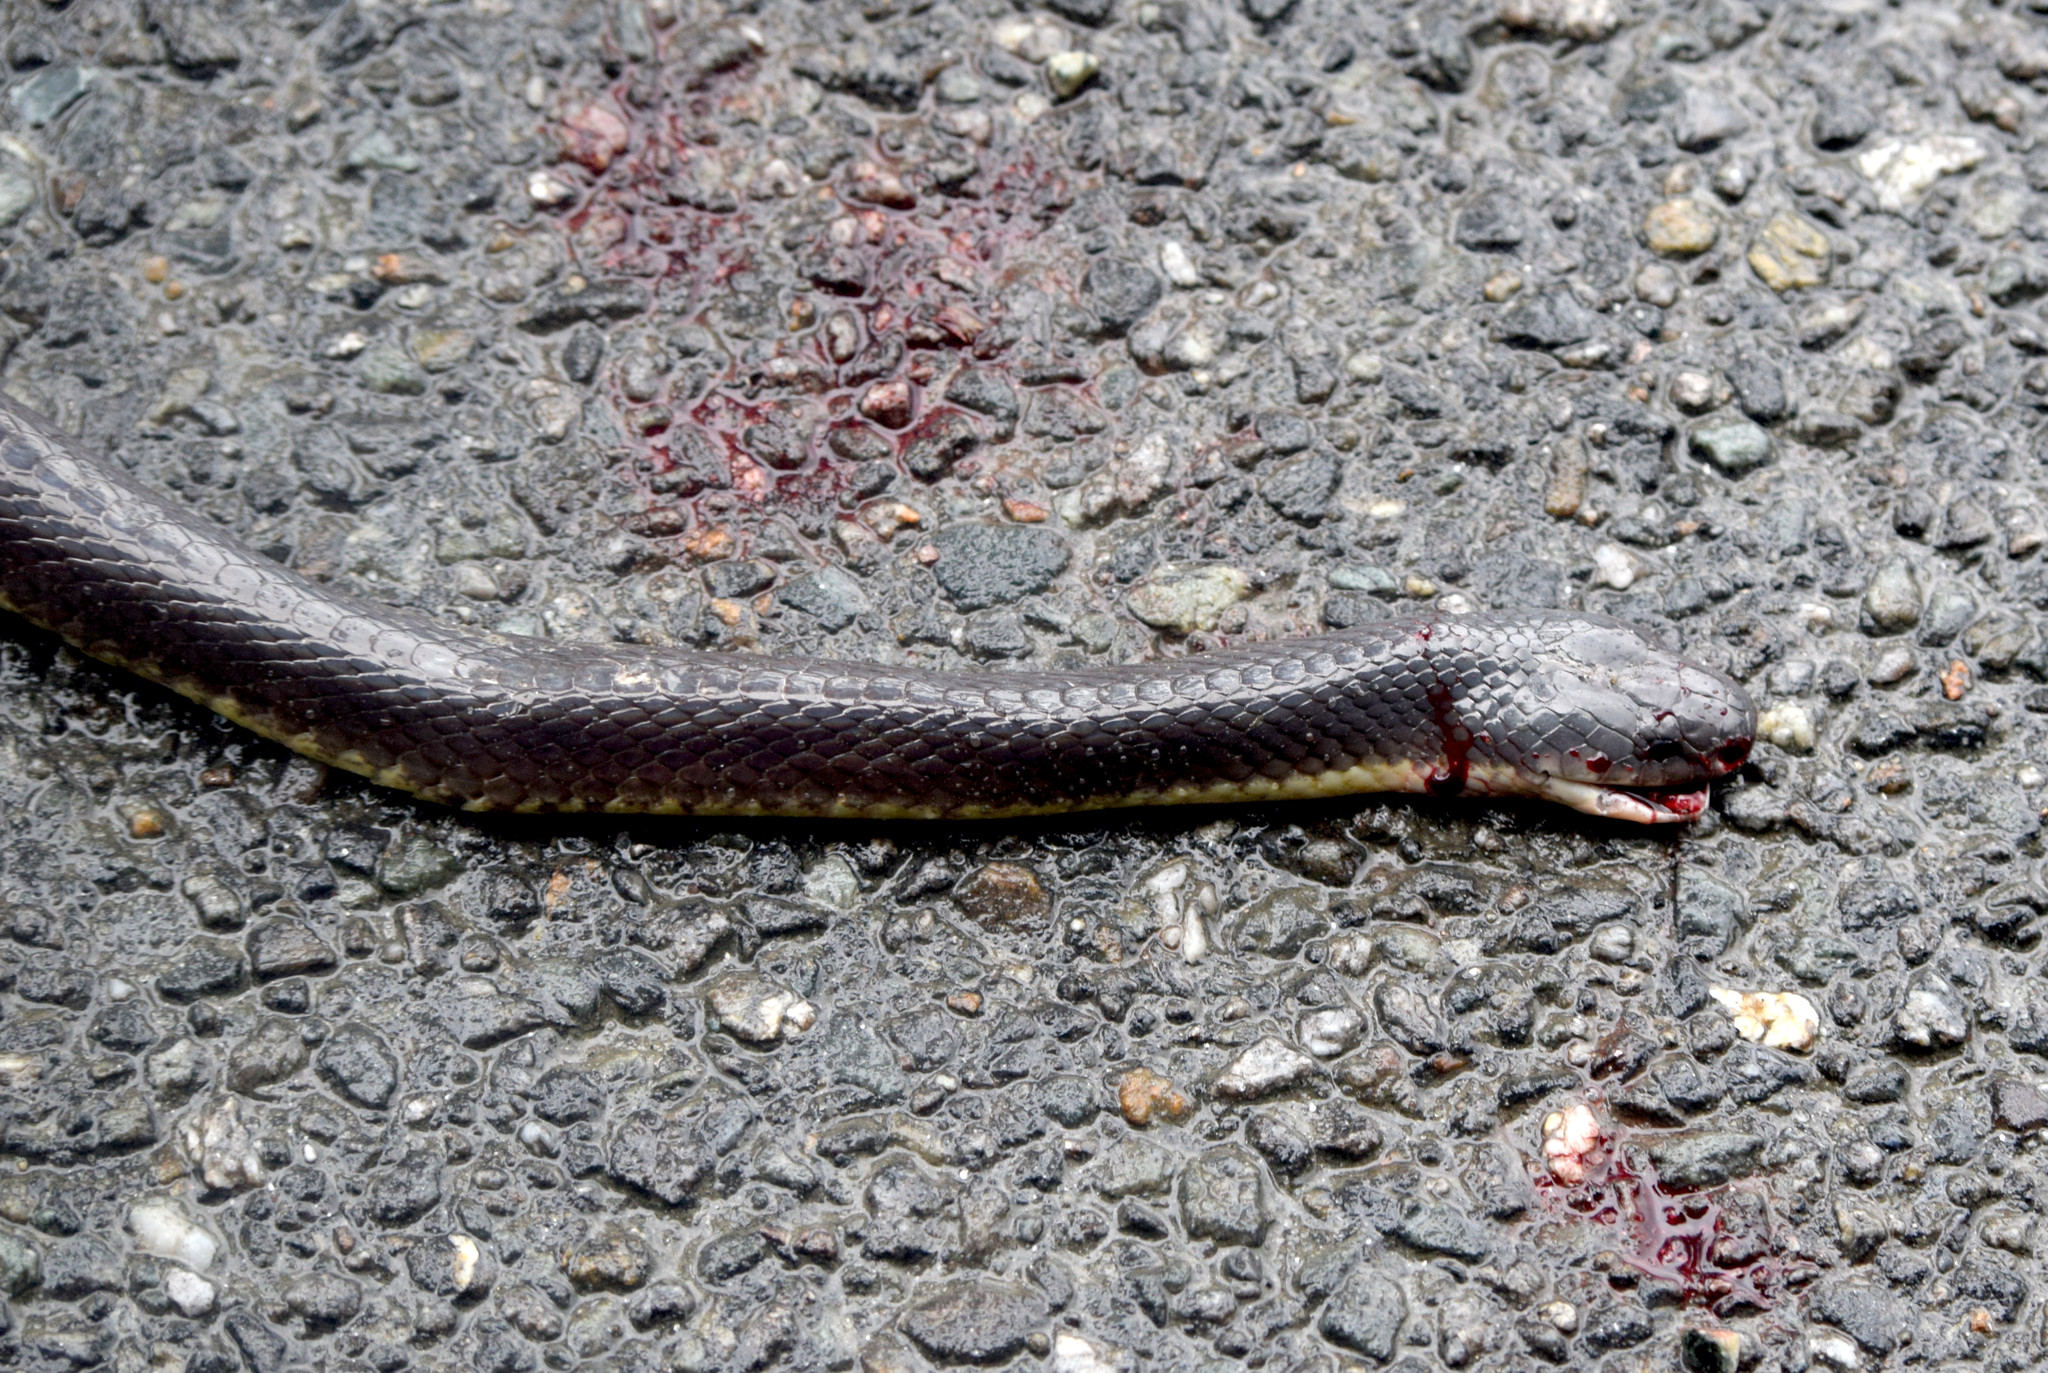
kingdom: Animalia
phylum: Chordata
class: Squamata
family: Elapidae
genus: Bungarus
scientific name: Bungarus niger
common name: Greater black krait
